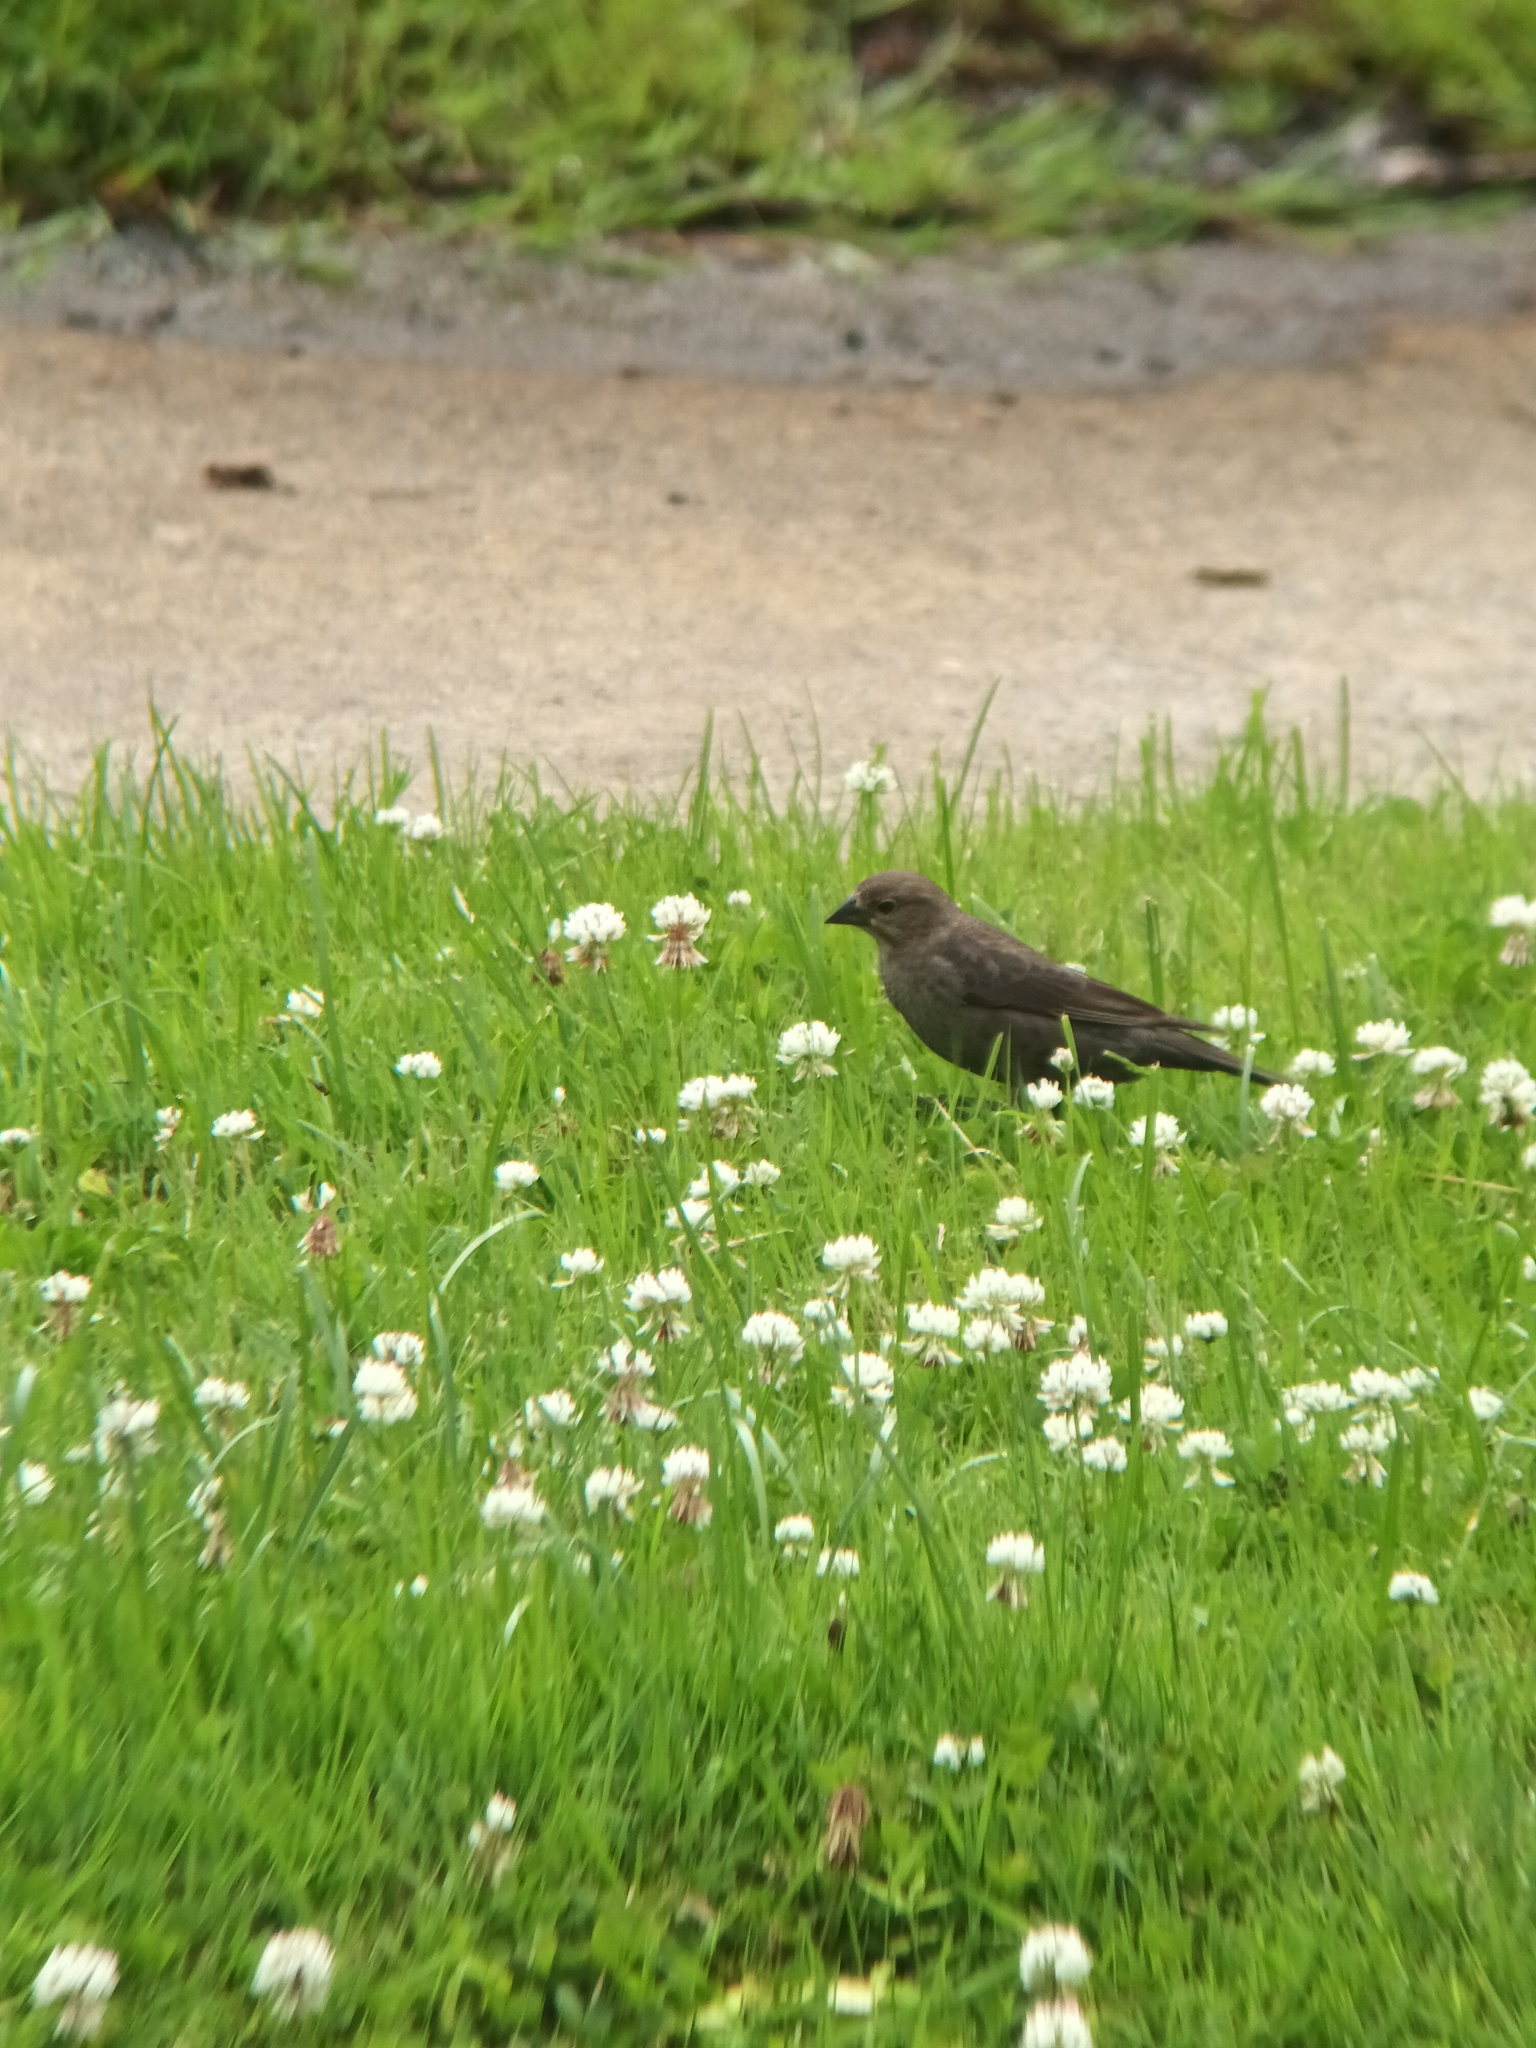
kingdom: Animalia
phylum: Chordata
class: Aves
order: Passeriformes
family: Icteridae
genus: Molothrus
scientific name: Molothrus ater
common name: Brown-headed cowbird
